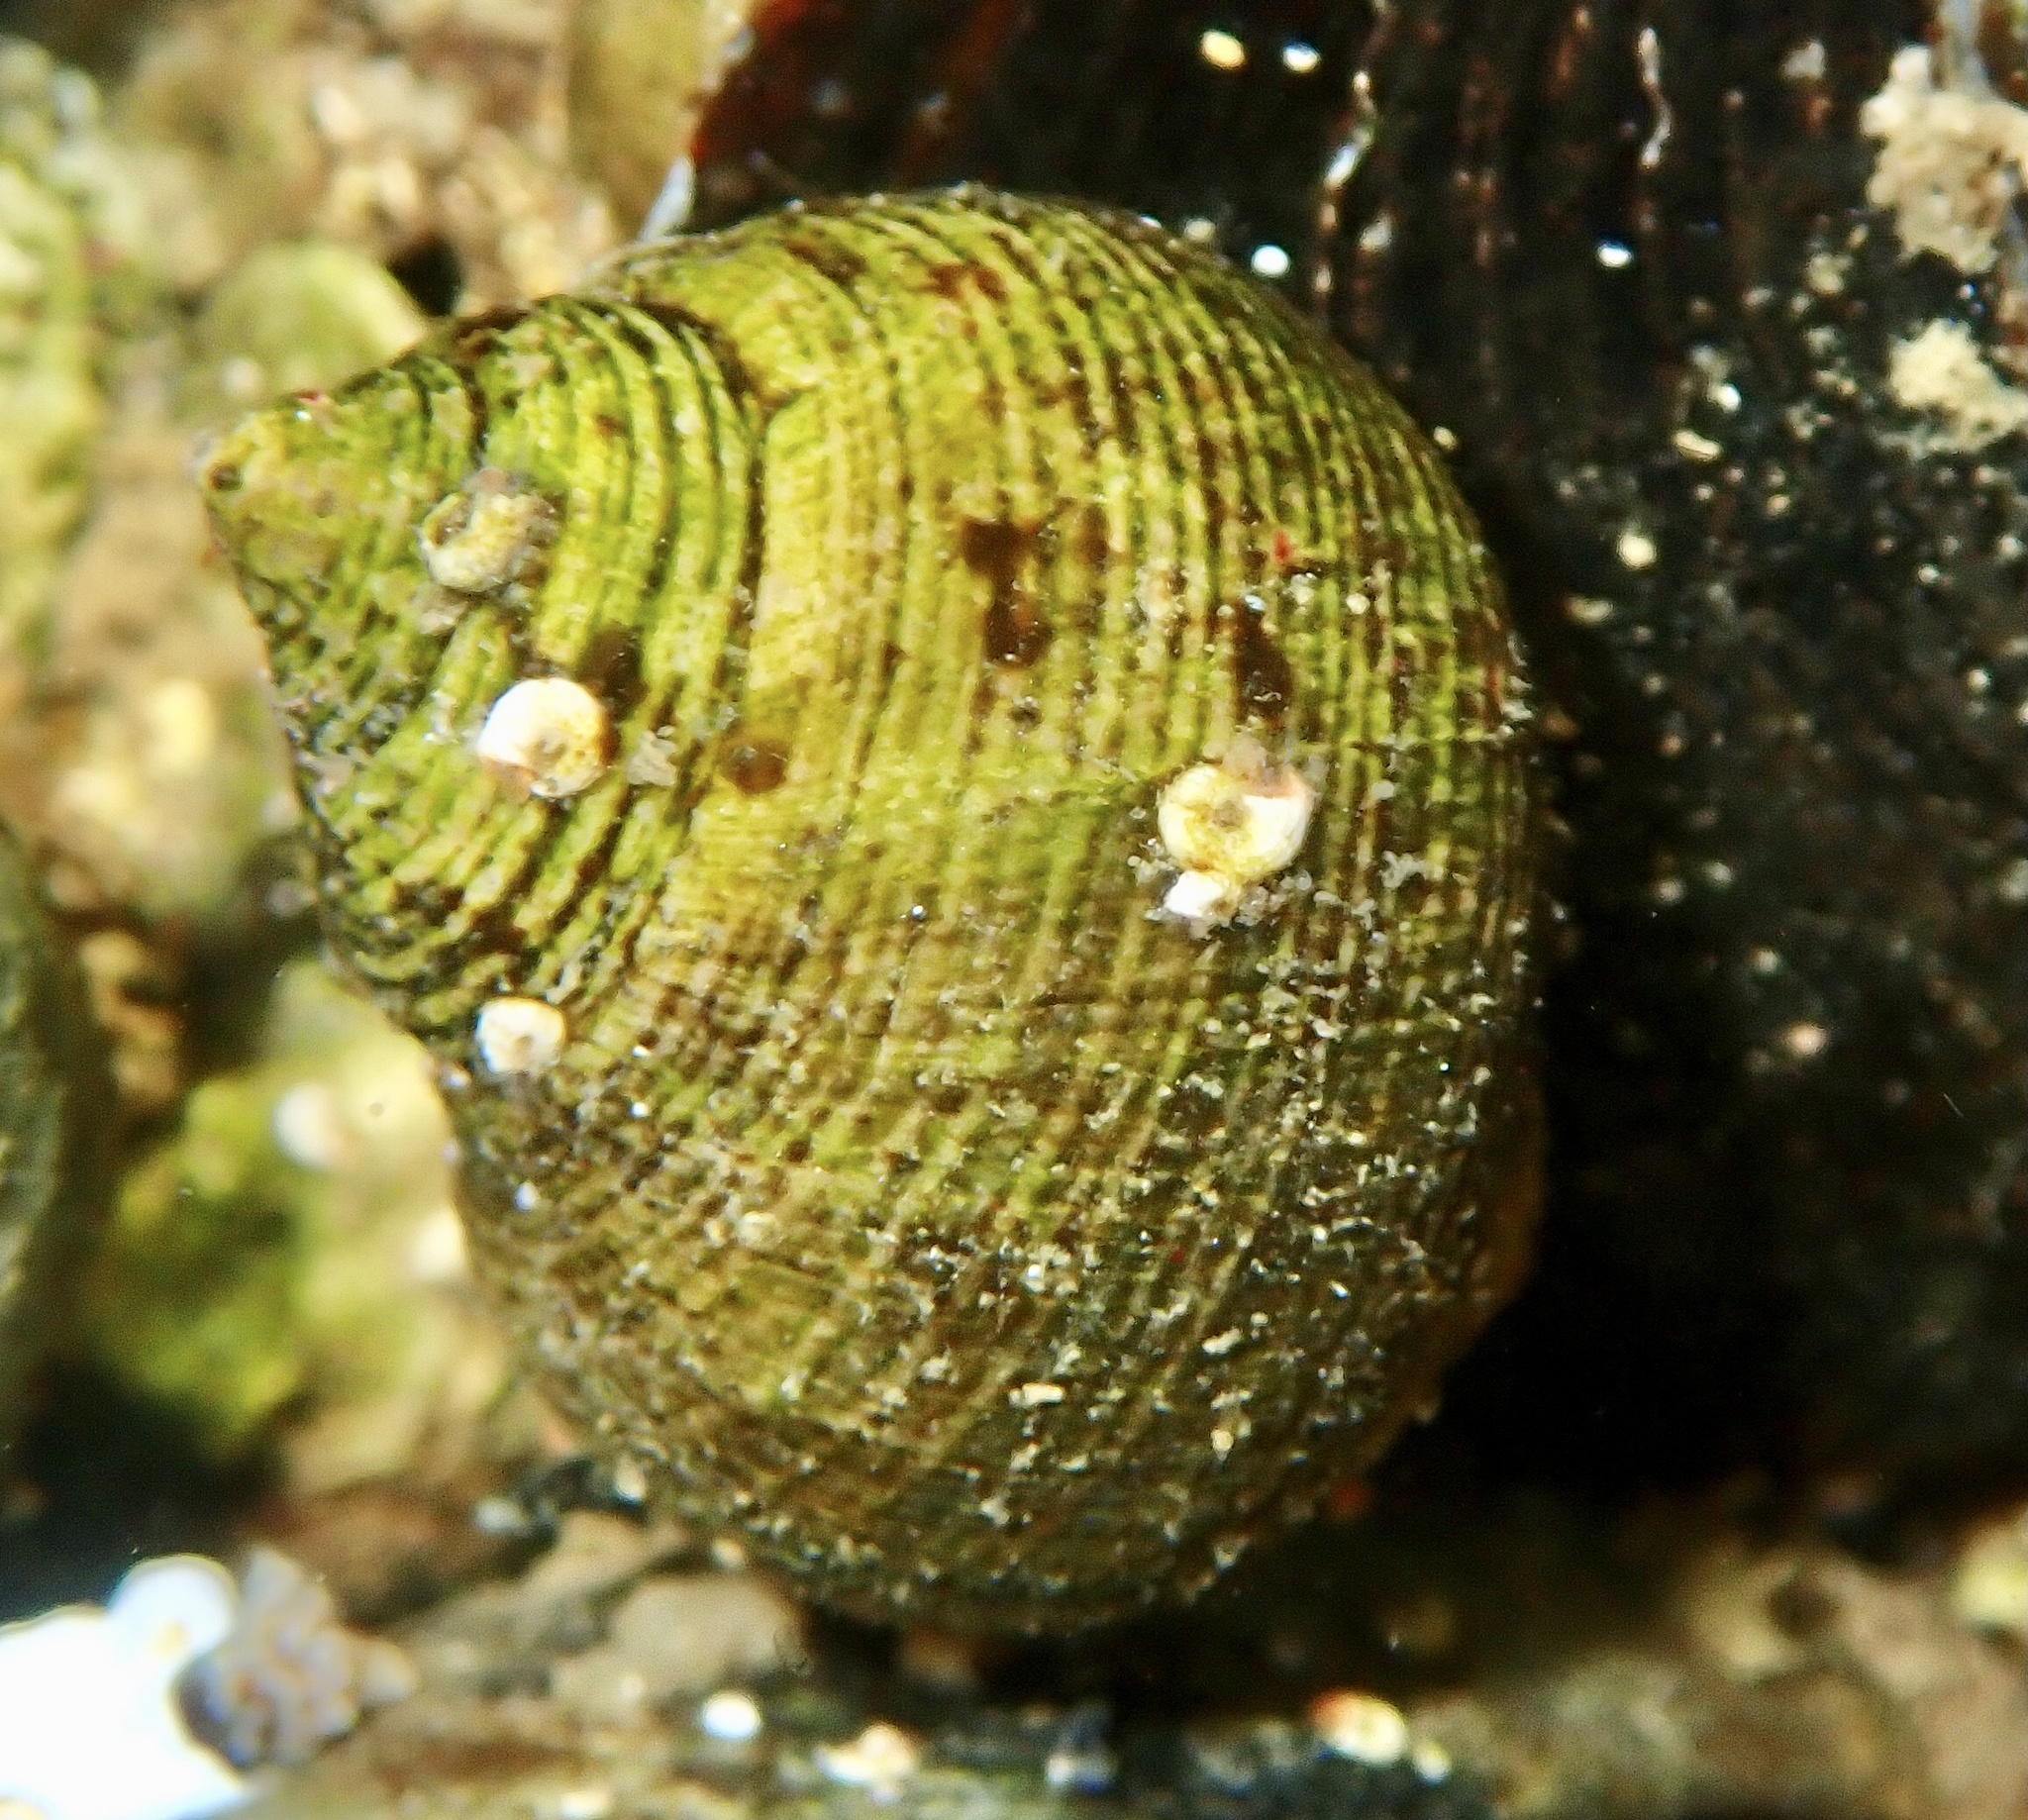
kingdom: Animalia
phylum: Mollusca
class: Gastropoda
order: Littorinimorpha
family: Littorinidae
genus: Littorina
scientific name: Littorina littorea
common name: Common periwinkle
